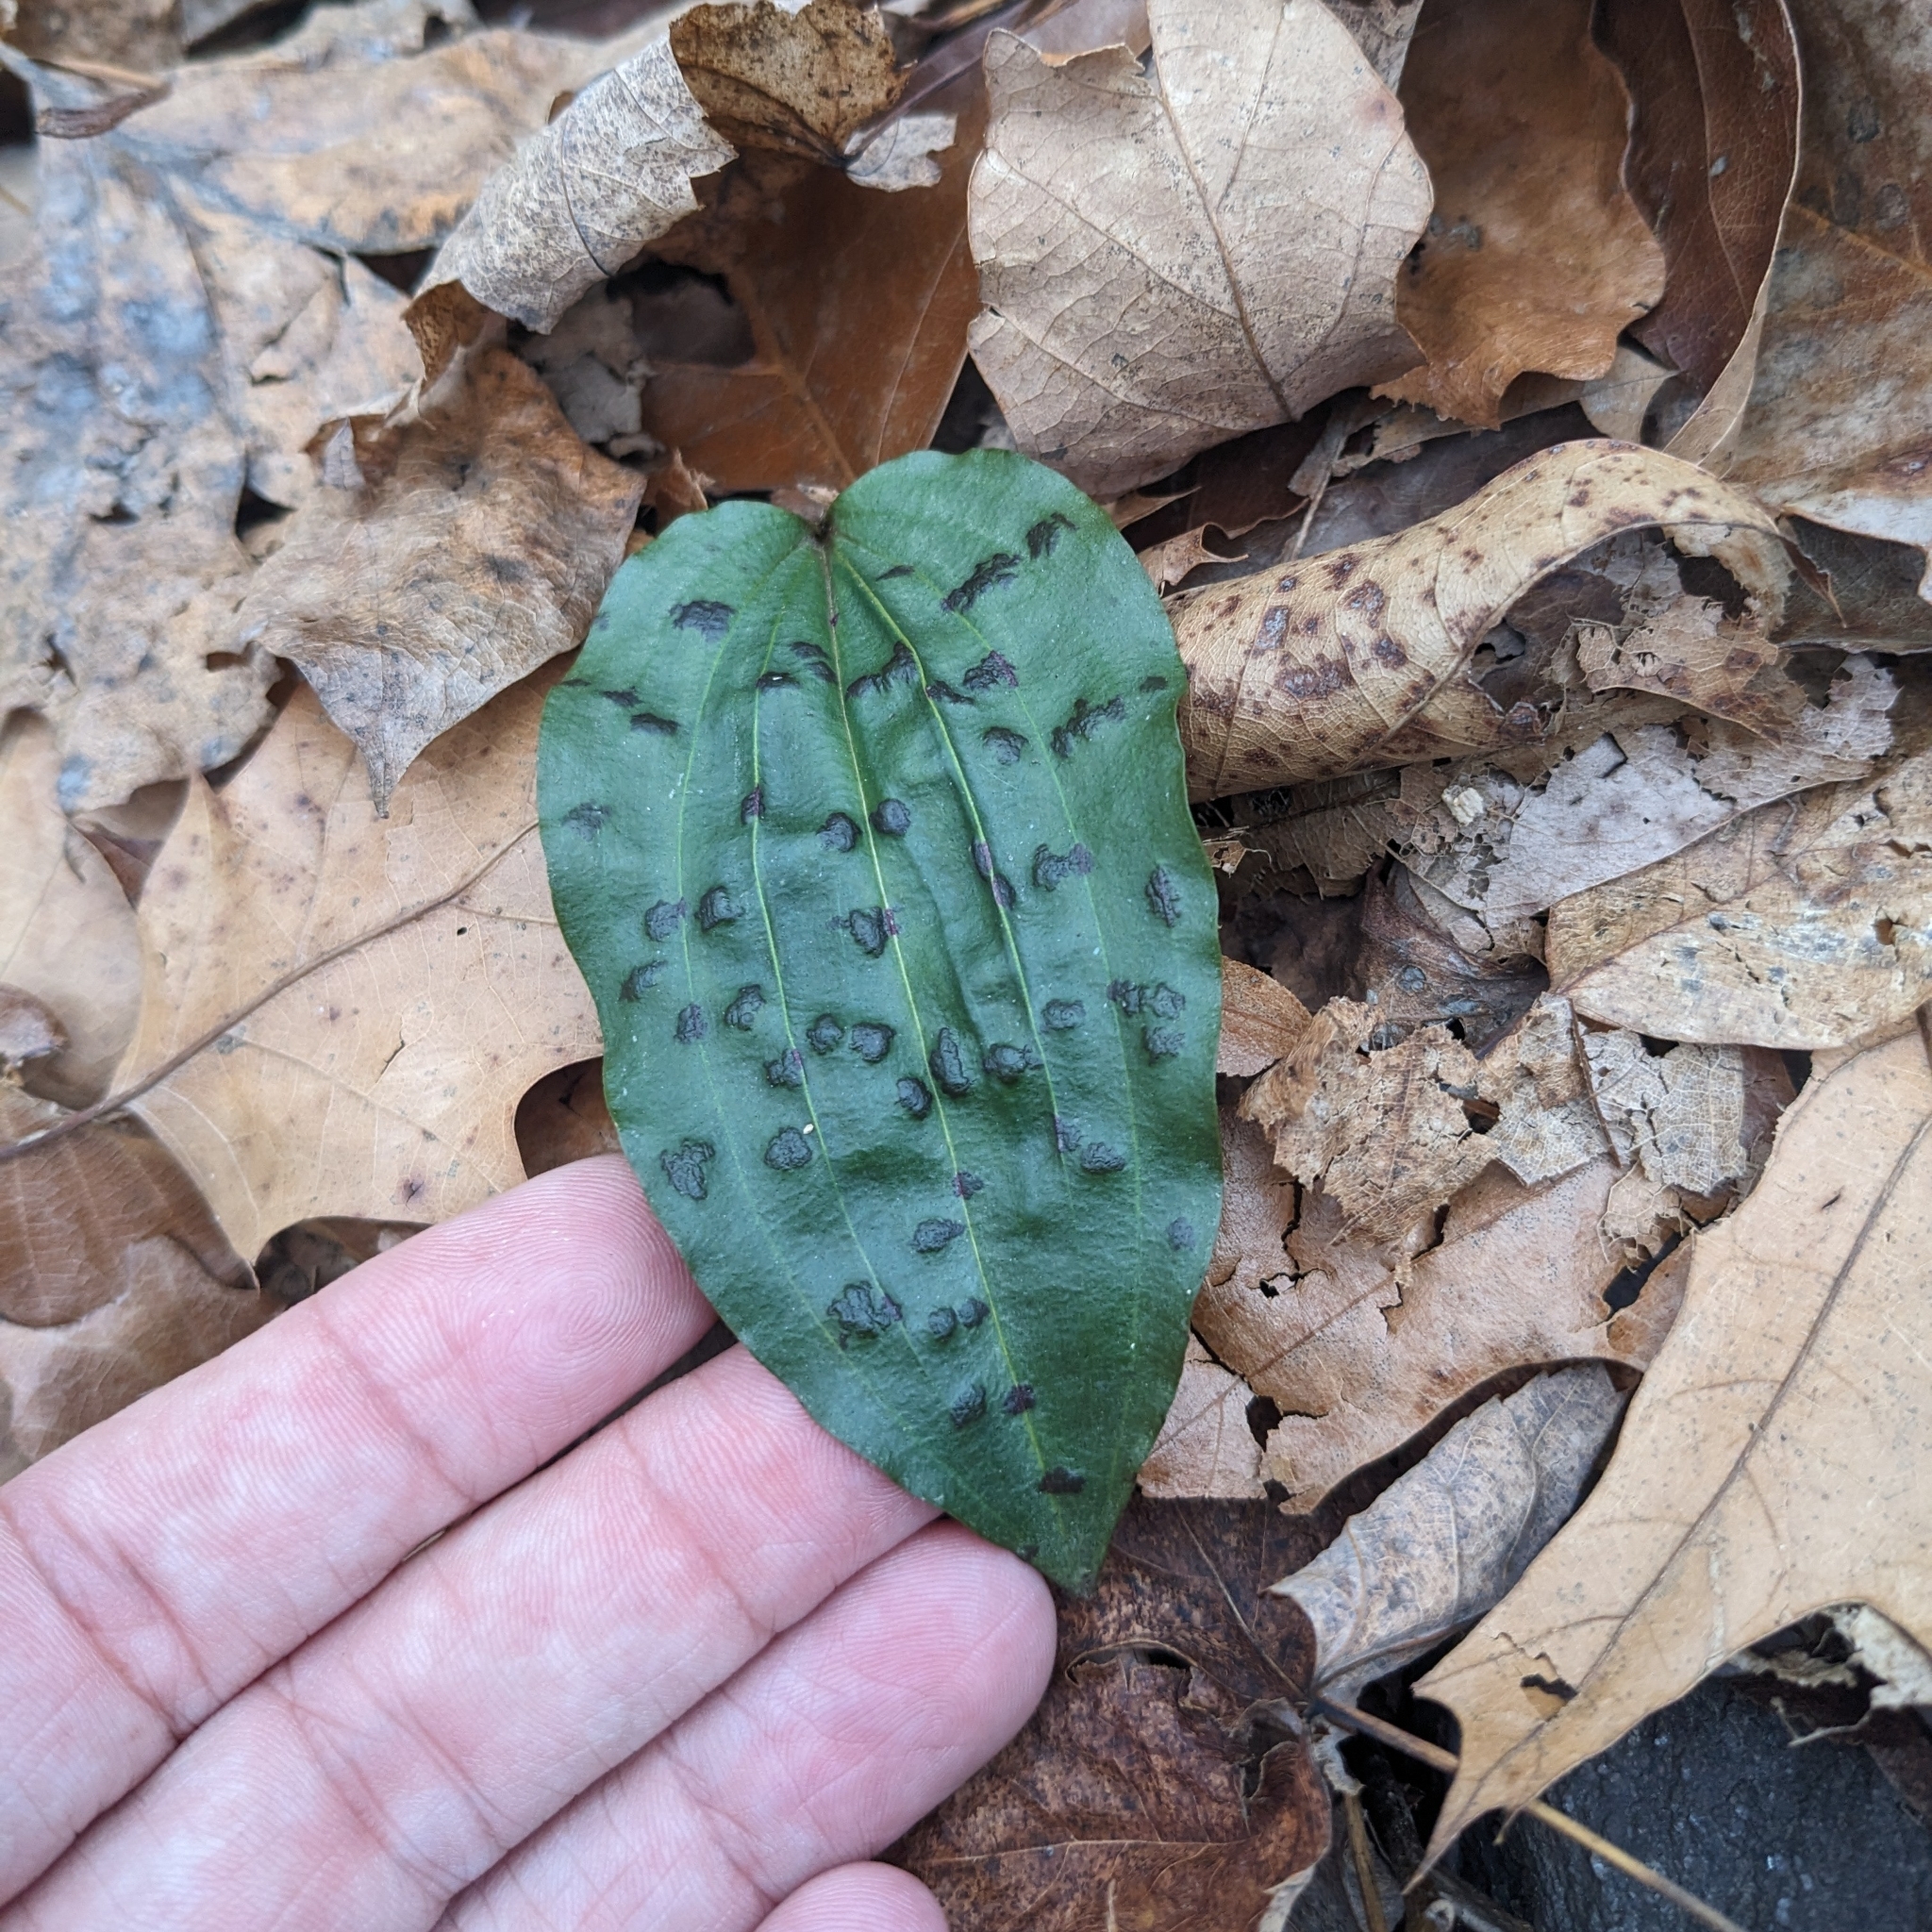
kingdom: Plantae
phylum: Tracheophyta
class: Liliopsida
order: Asparagales
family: Orchidaceae
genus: Tipularia
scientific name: Tipularia discolor
